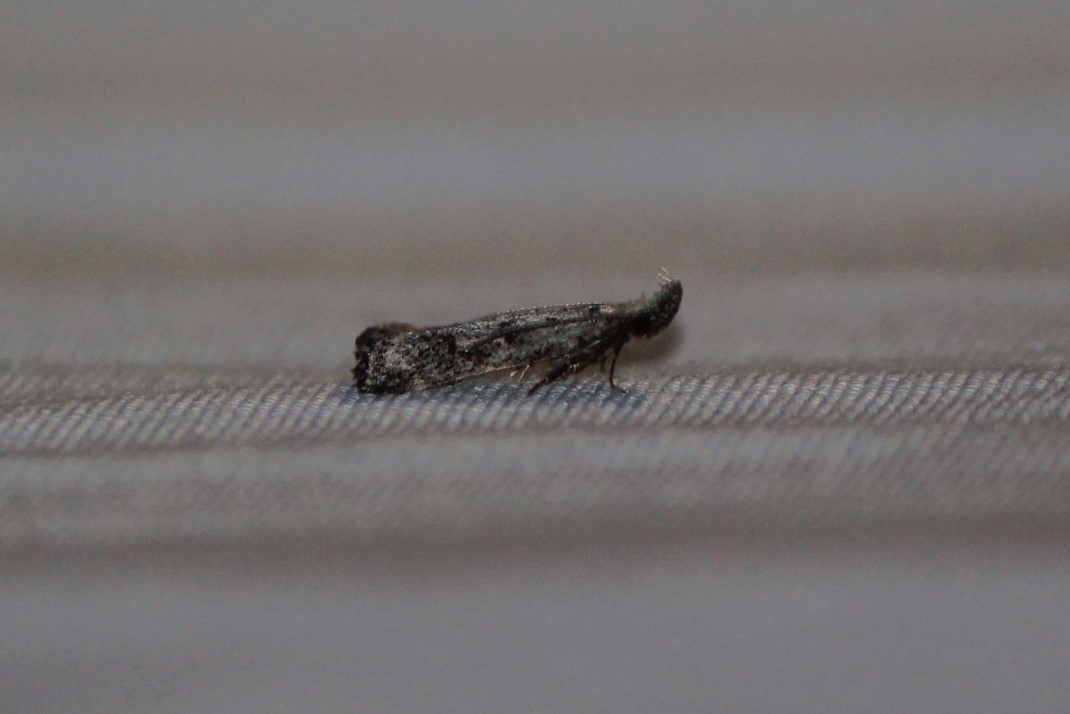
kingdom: Animalia
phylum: Arthropoda
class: Insecta
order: Lepidoptera
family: Gelechiidae
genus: Dichomeris
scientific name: Dichomeris inversella
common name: Inverse dichomeris moth
